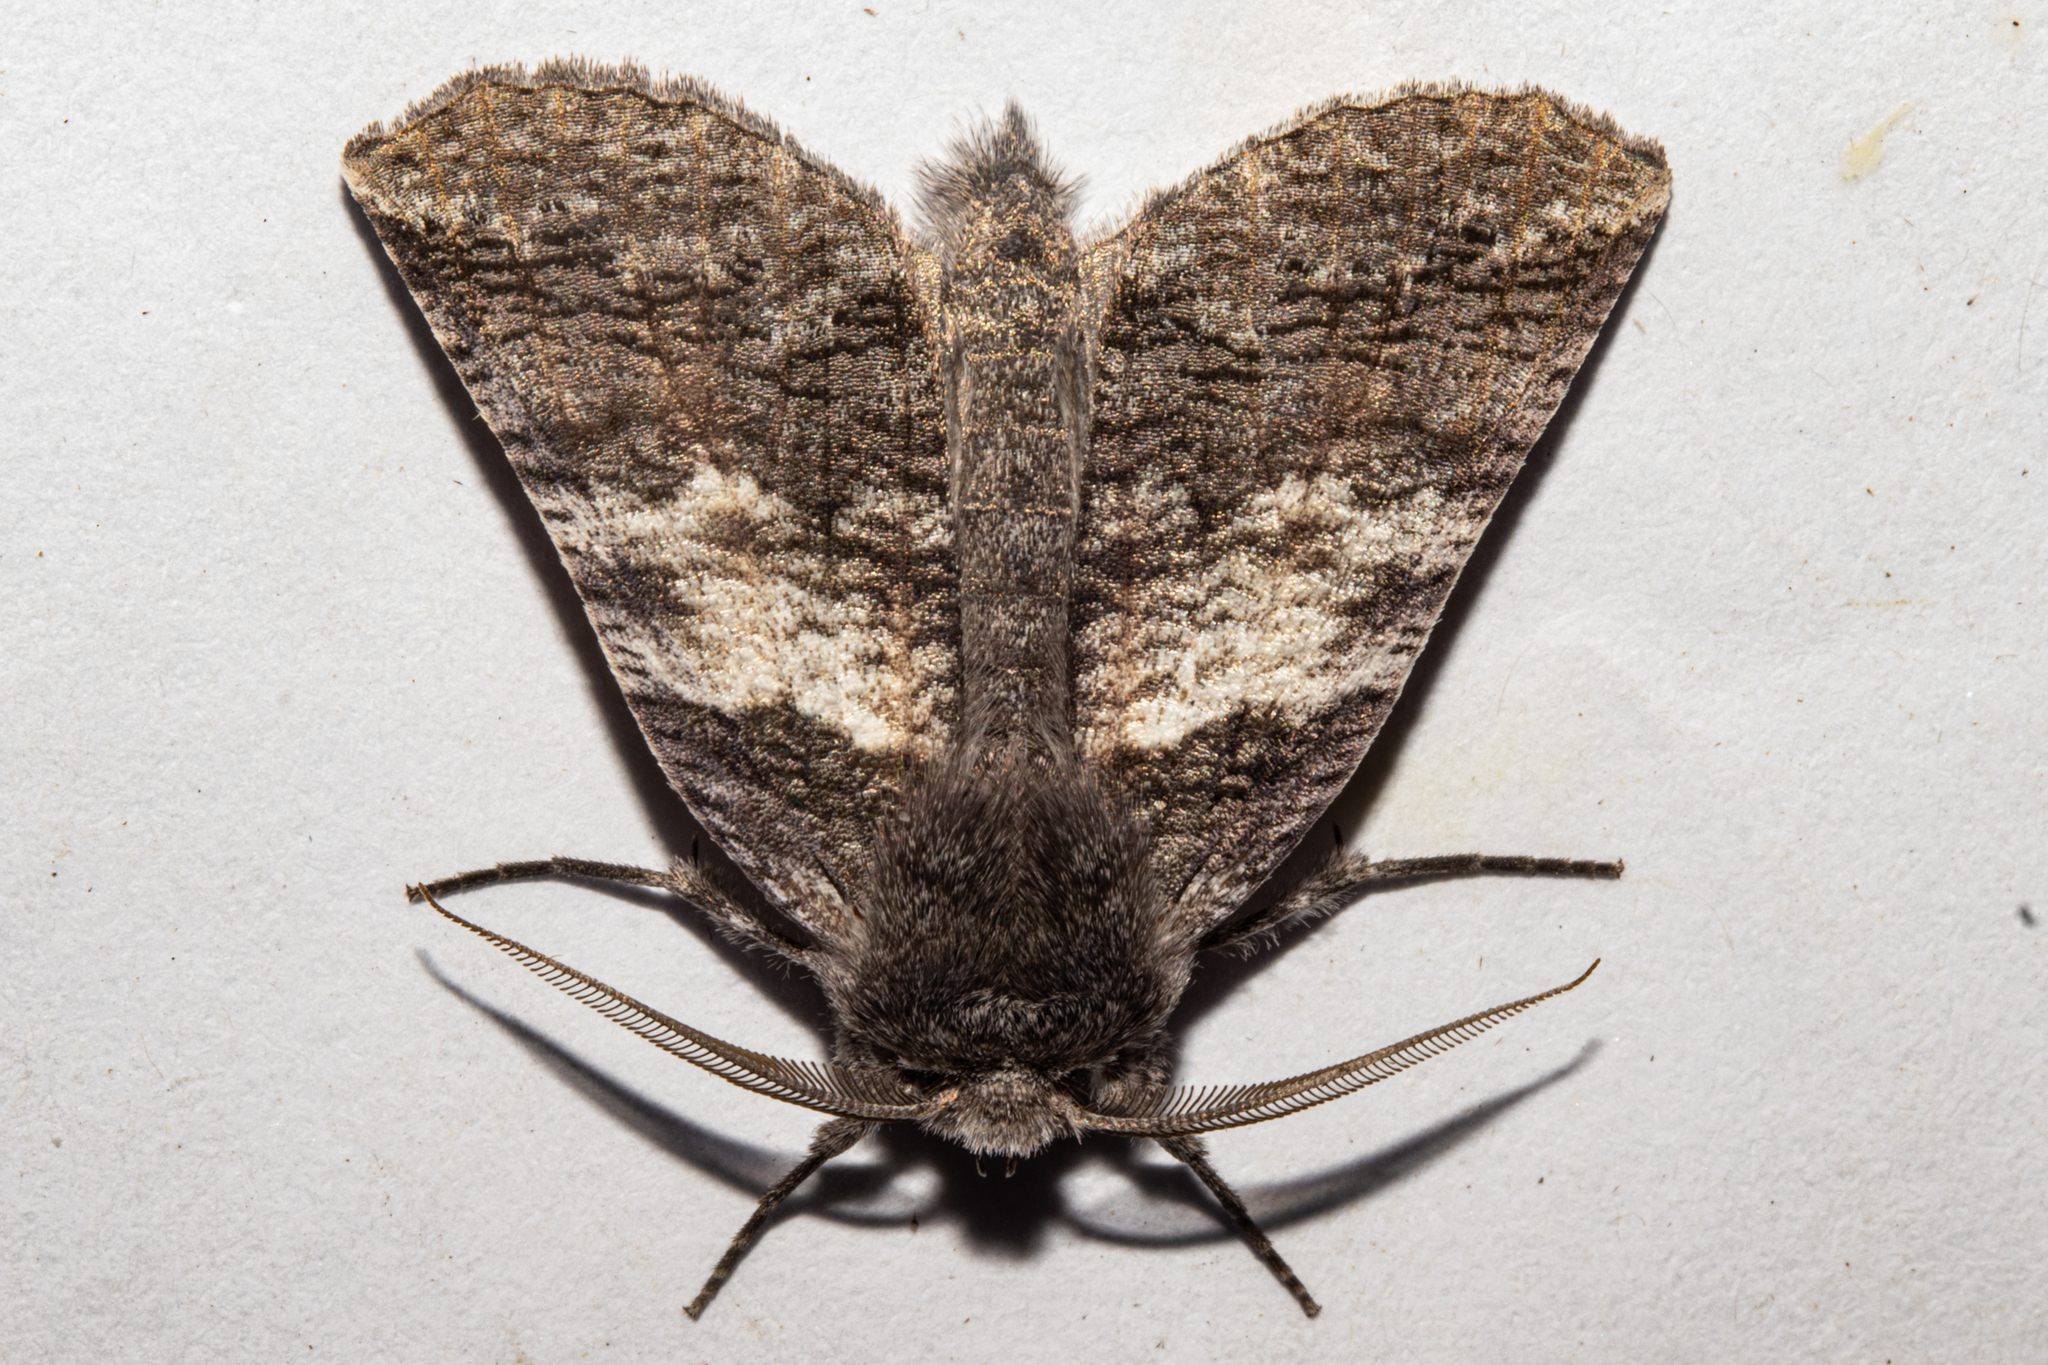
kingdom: Animalia
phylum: Arthropoda
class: Insecta
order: Lepidoptera
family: Geometridae
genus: Declana
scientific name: Declana
